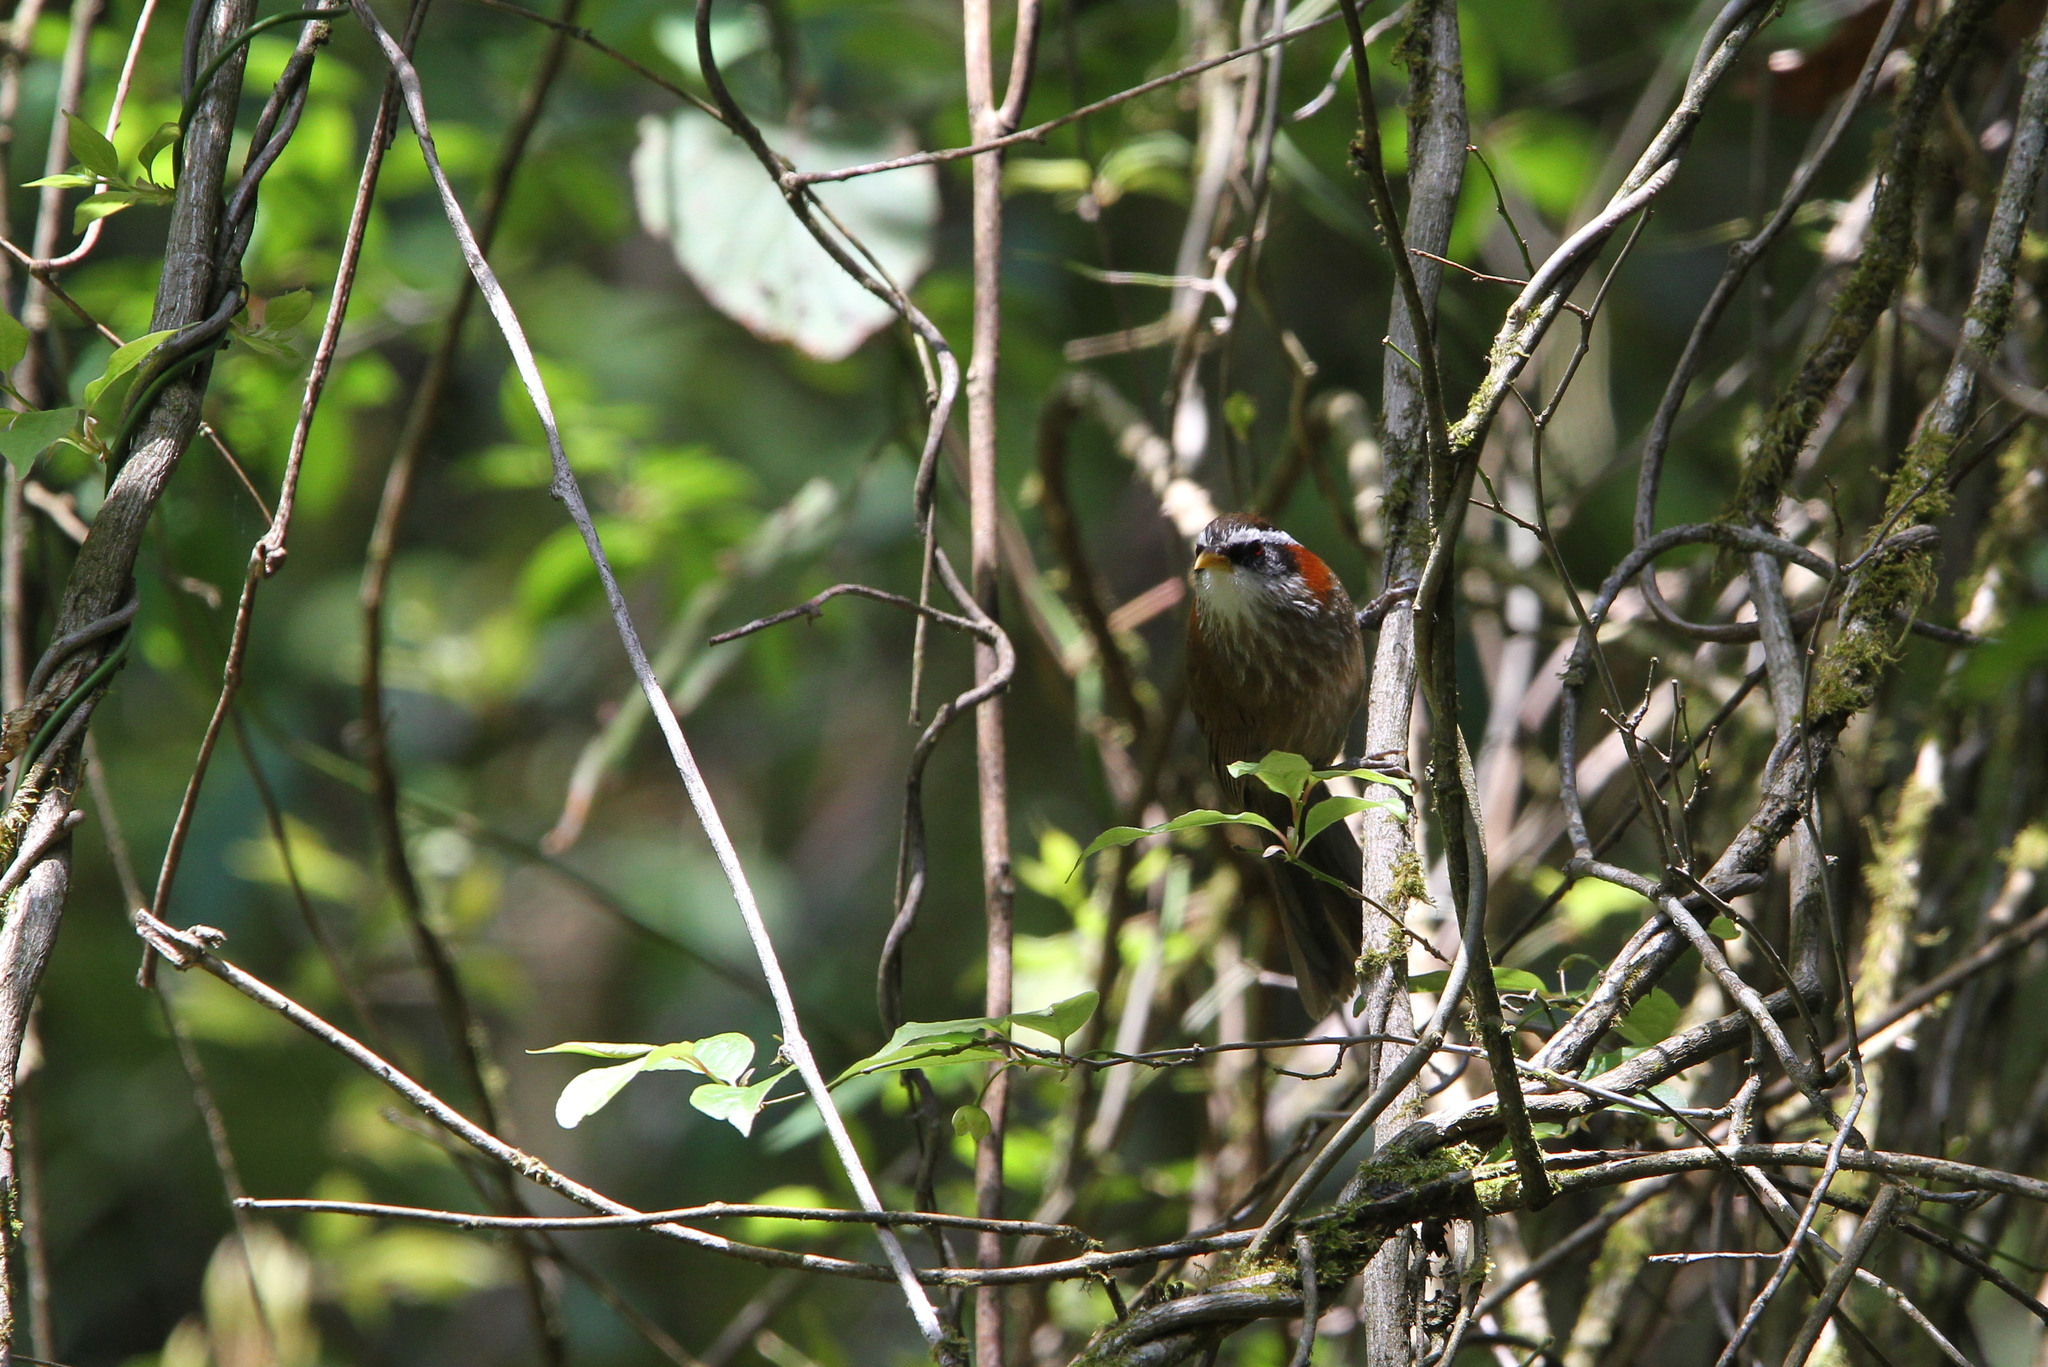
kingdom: Animalia
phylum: Chordata
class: Aves
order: Passeriformes
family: Timaliidae
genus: Pomatorhinus
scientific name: Pomatorhinus ruficollis
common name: Streak-breasted scimitar babbler
